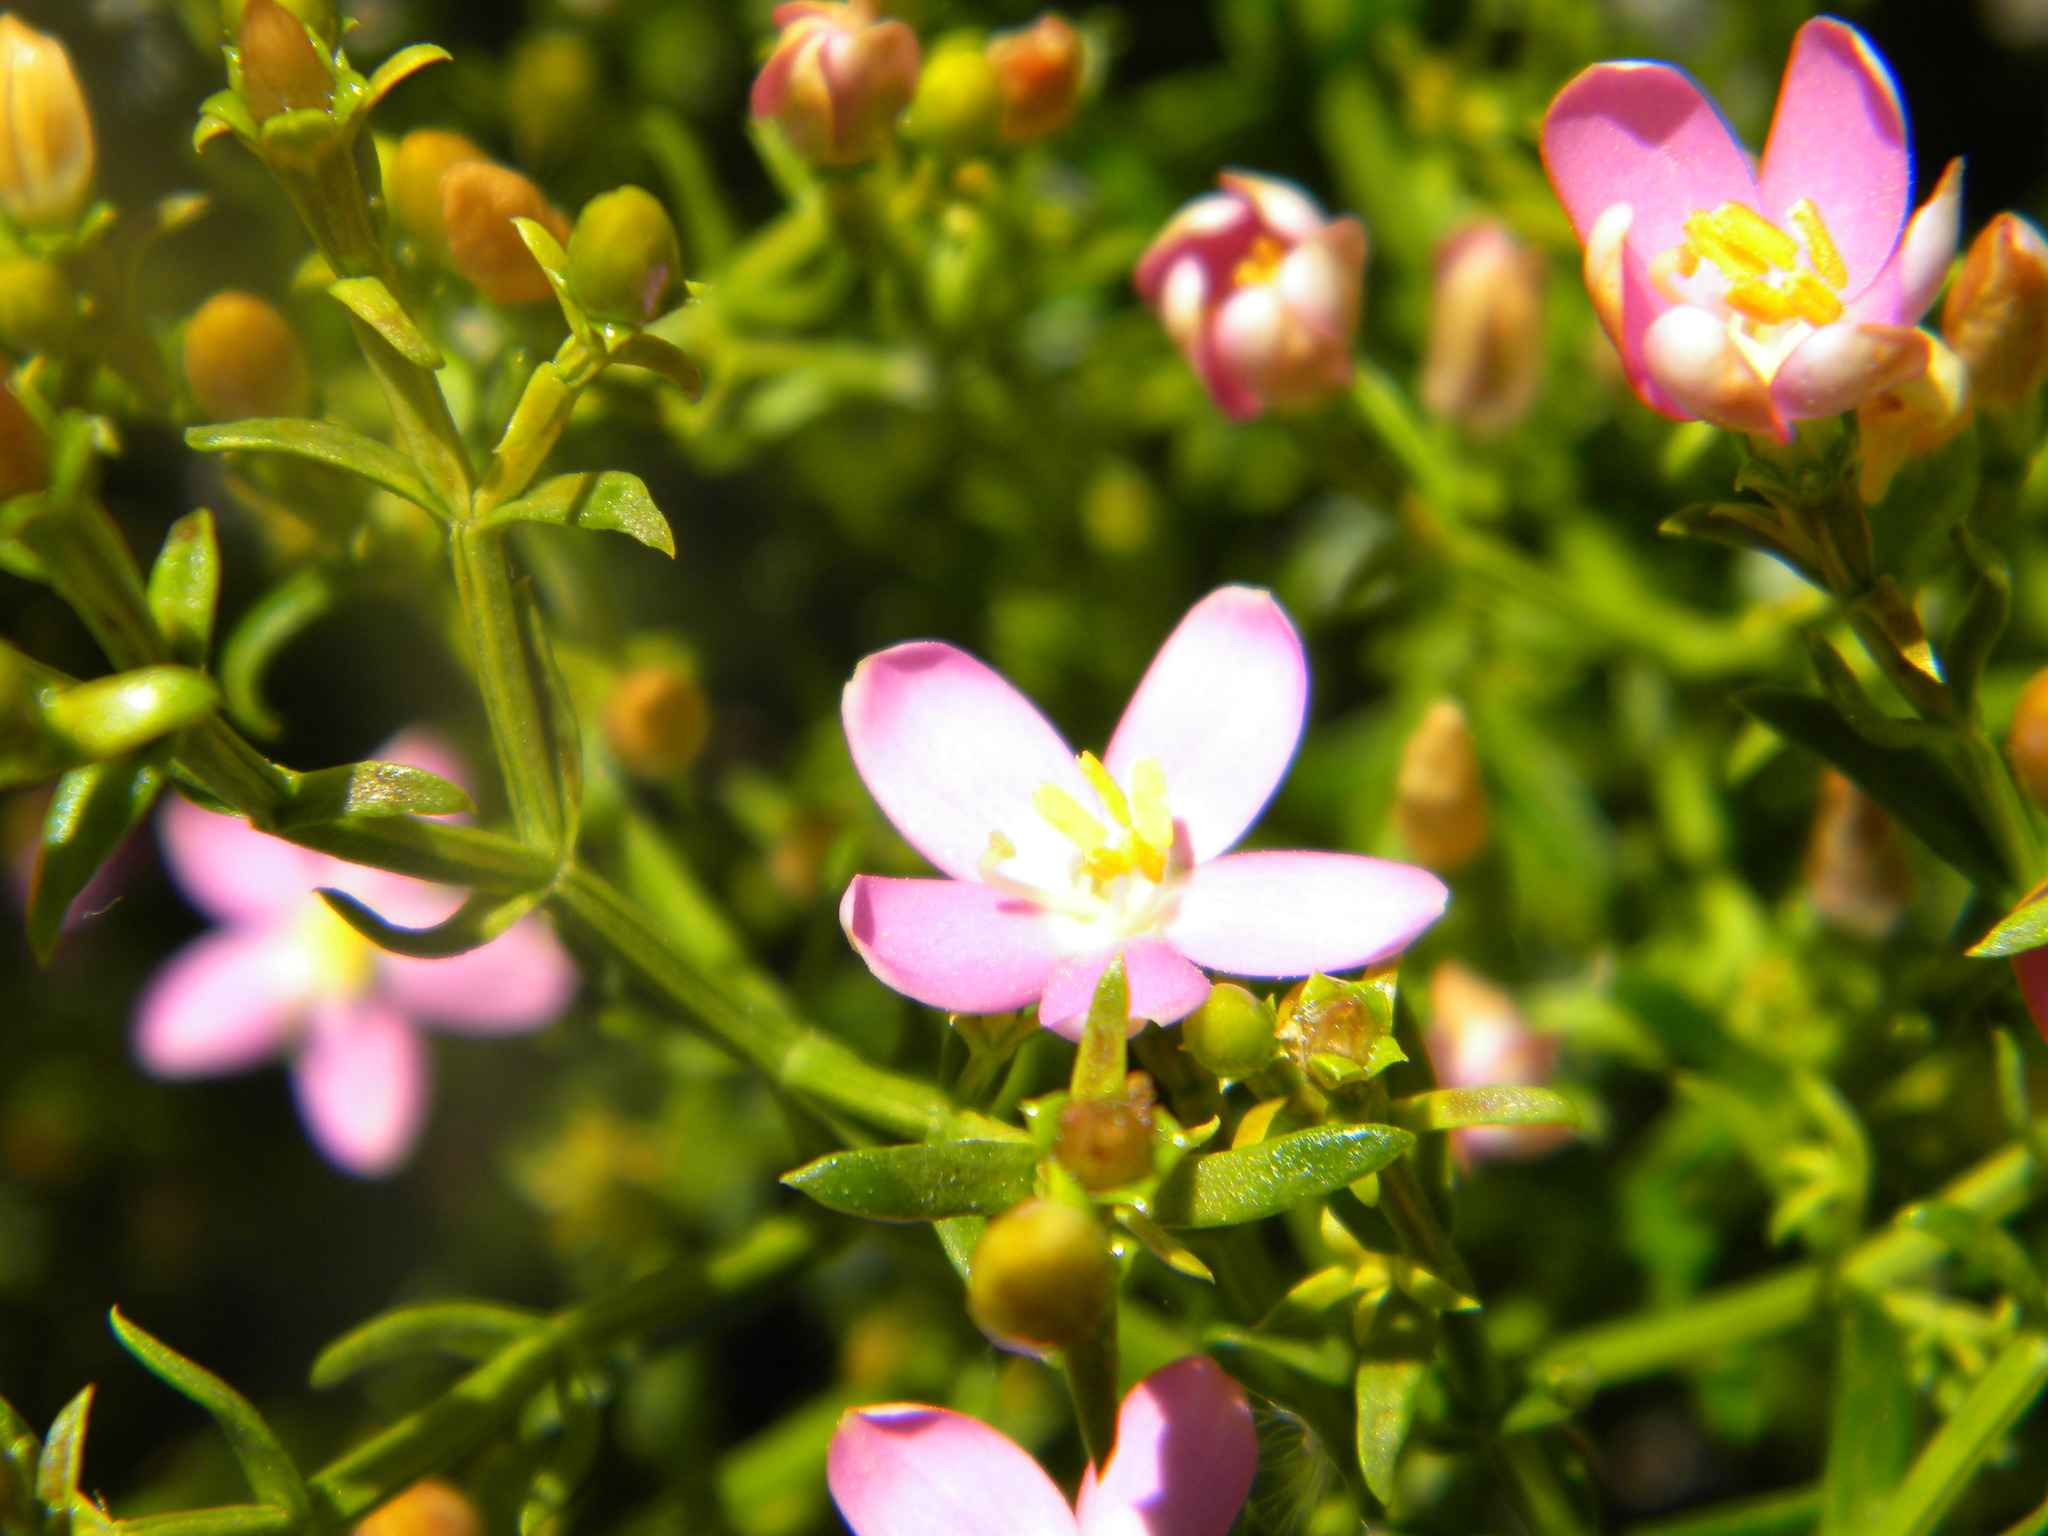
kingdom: Plantae
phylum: Tracheophyta
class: Magnoliopsida
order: Gentianales
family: Gentianaceae
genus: Chironia
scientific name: Chironia baccifera
